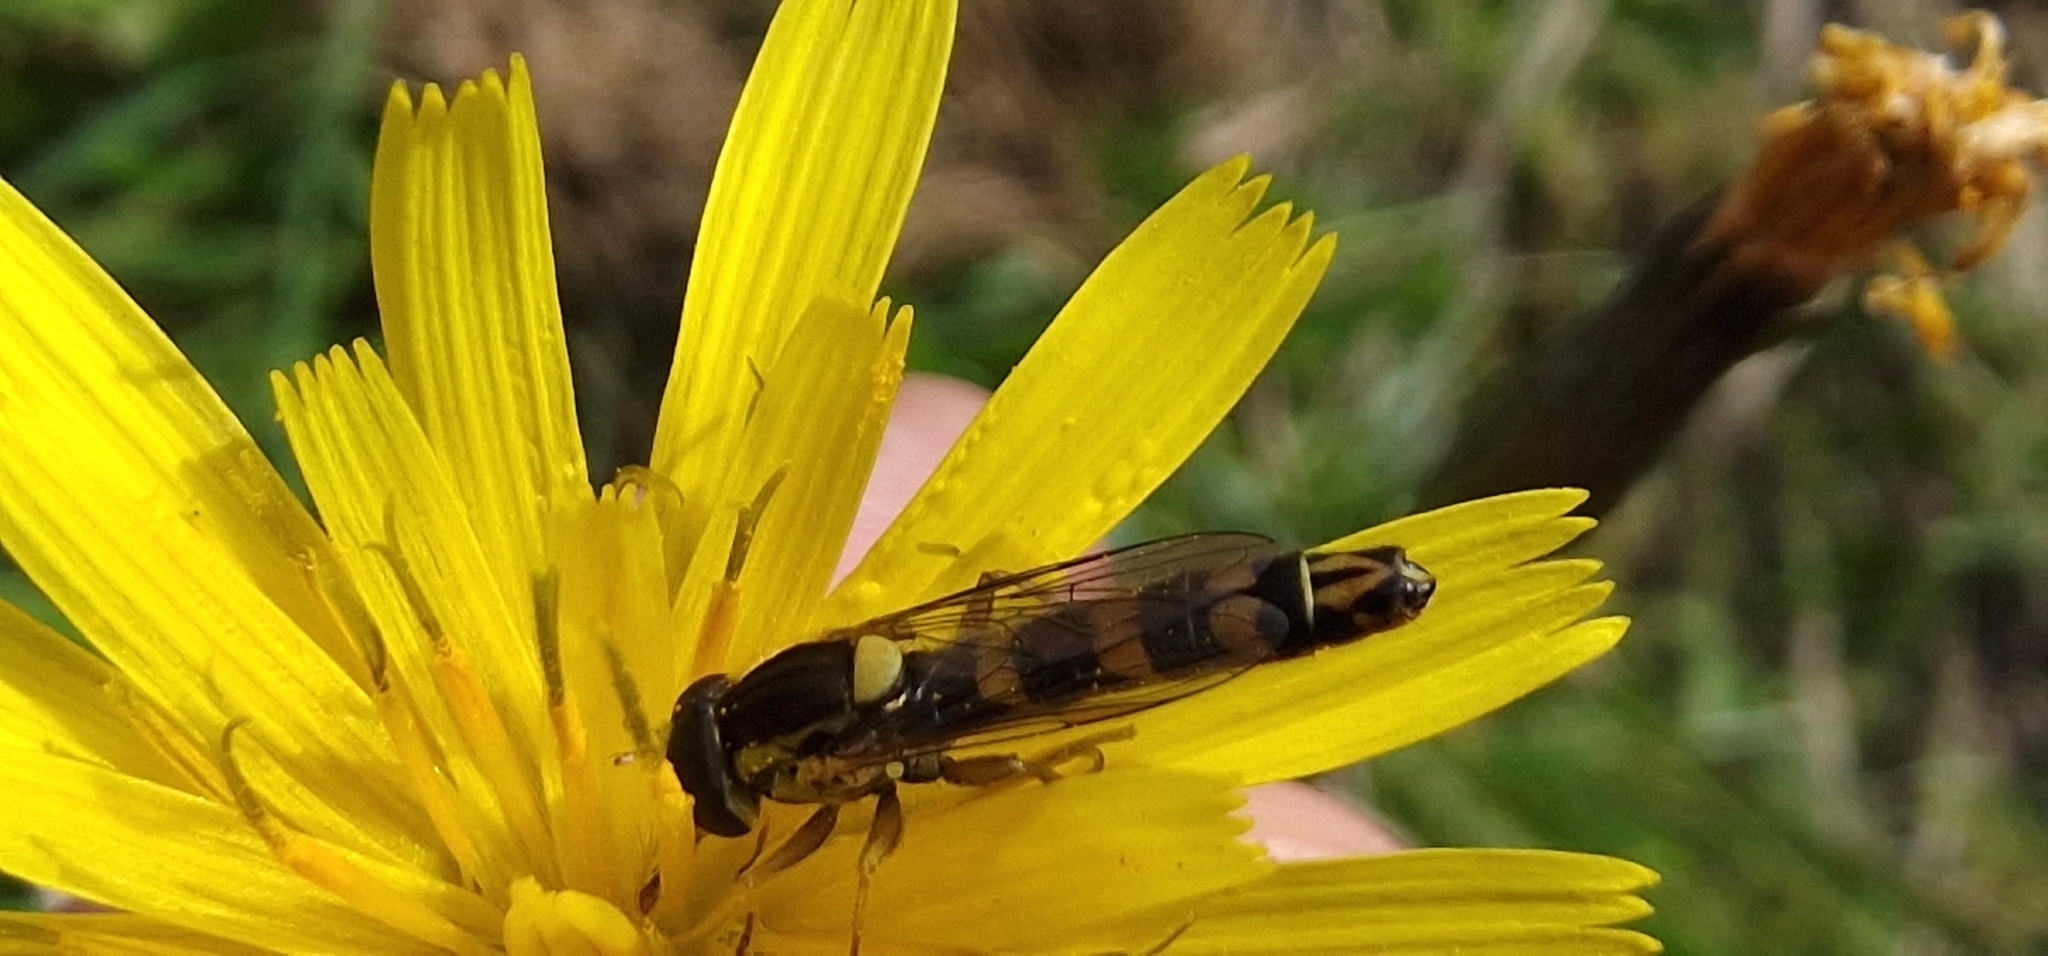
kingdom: Animalia
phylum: Arthropoda
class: Insecta
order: Diptera
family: Syrphidae
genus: Sphaerophoria
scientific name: Sphaerophoria scripta
